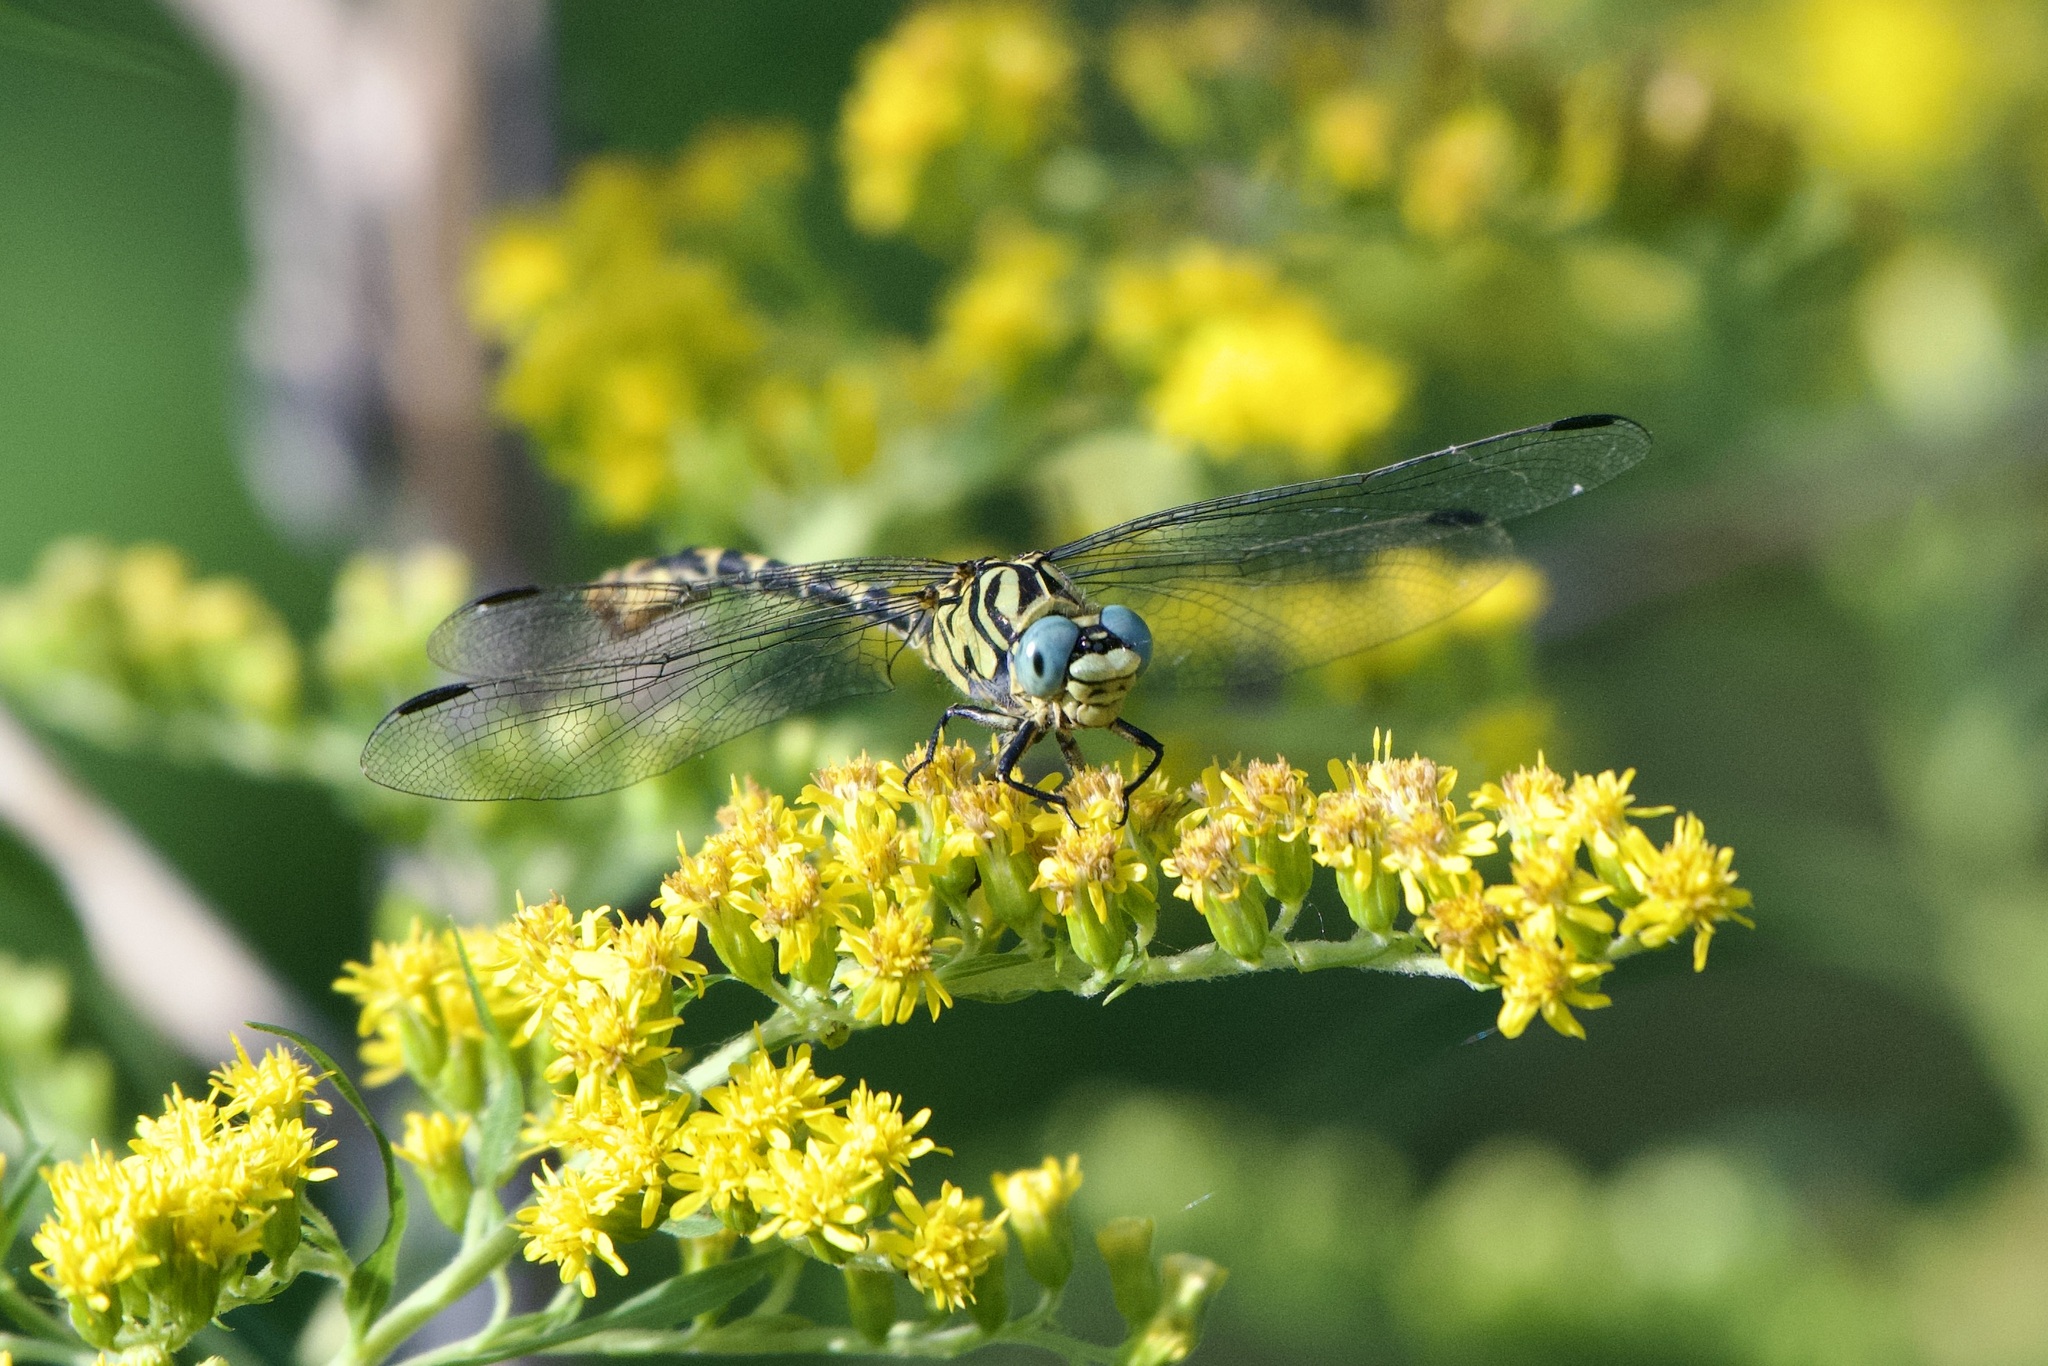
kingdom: Animalia
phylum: Arthropoda
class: Insecta
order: Odonata
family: Gomphidae
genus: Onychogomphus
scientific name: Onychogomphus forcipatus
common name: Small pincertail
